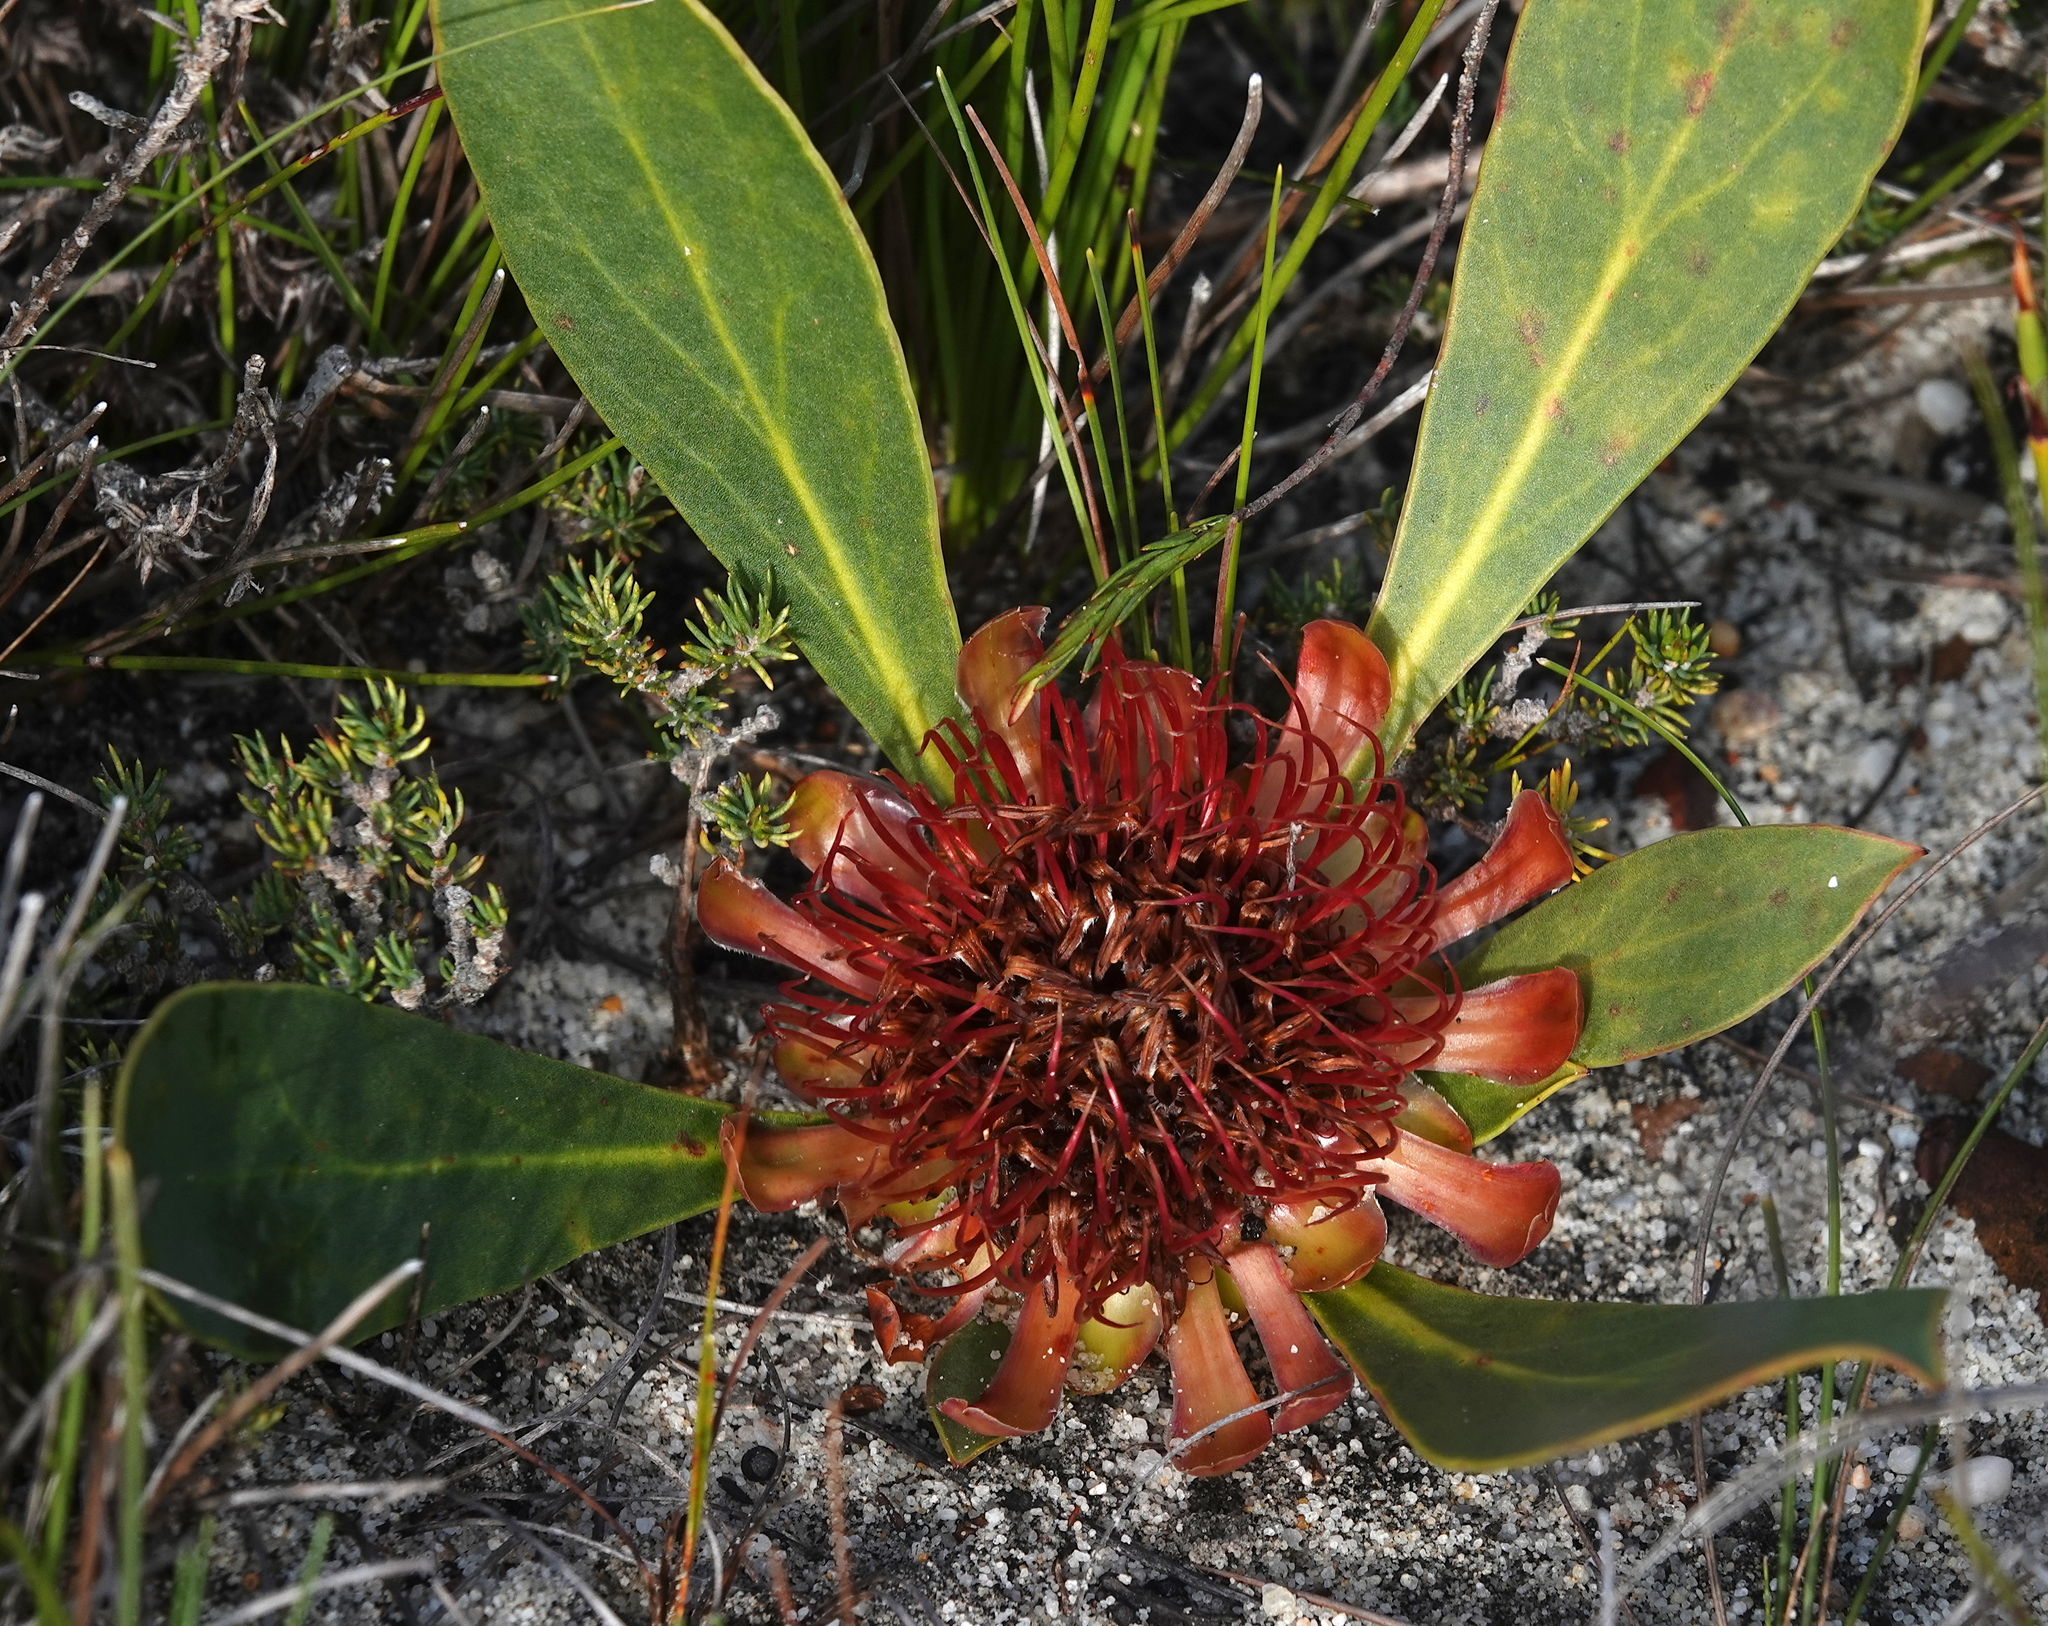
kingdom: Plantae
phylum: Tracheophyta
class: Magnoliopsida
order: Proteales
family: Proteaceae
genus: Protea
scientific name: Protea acaulos
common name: Common ground sugarbush
